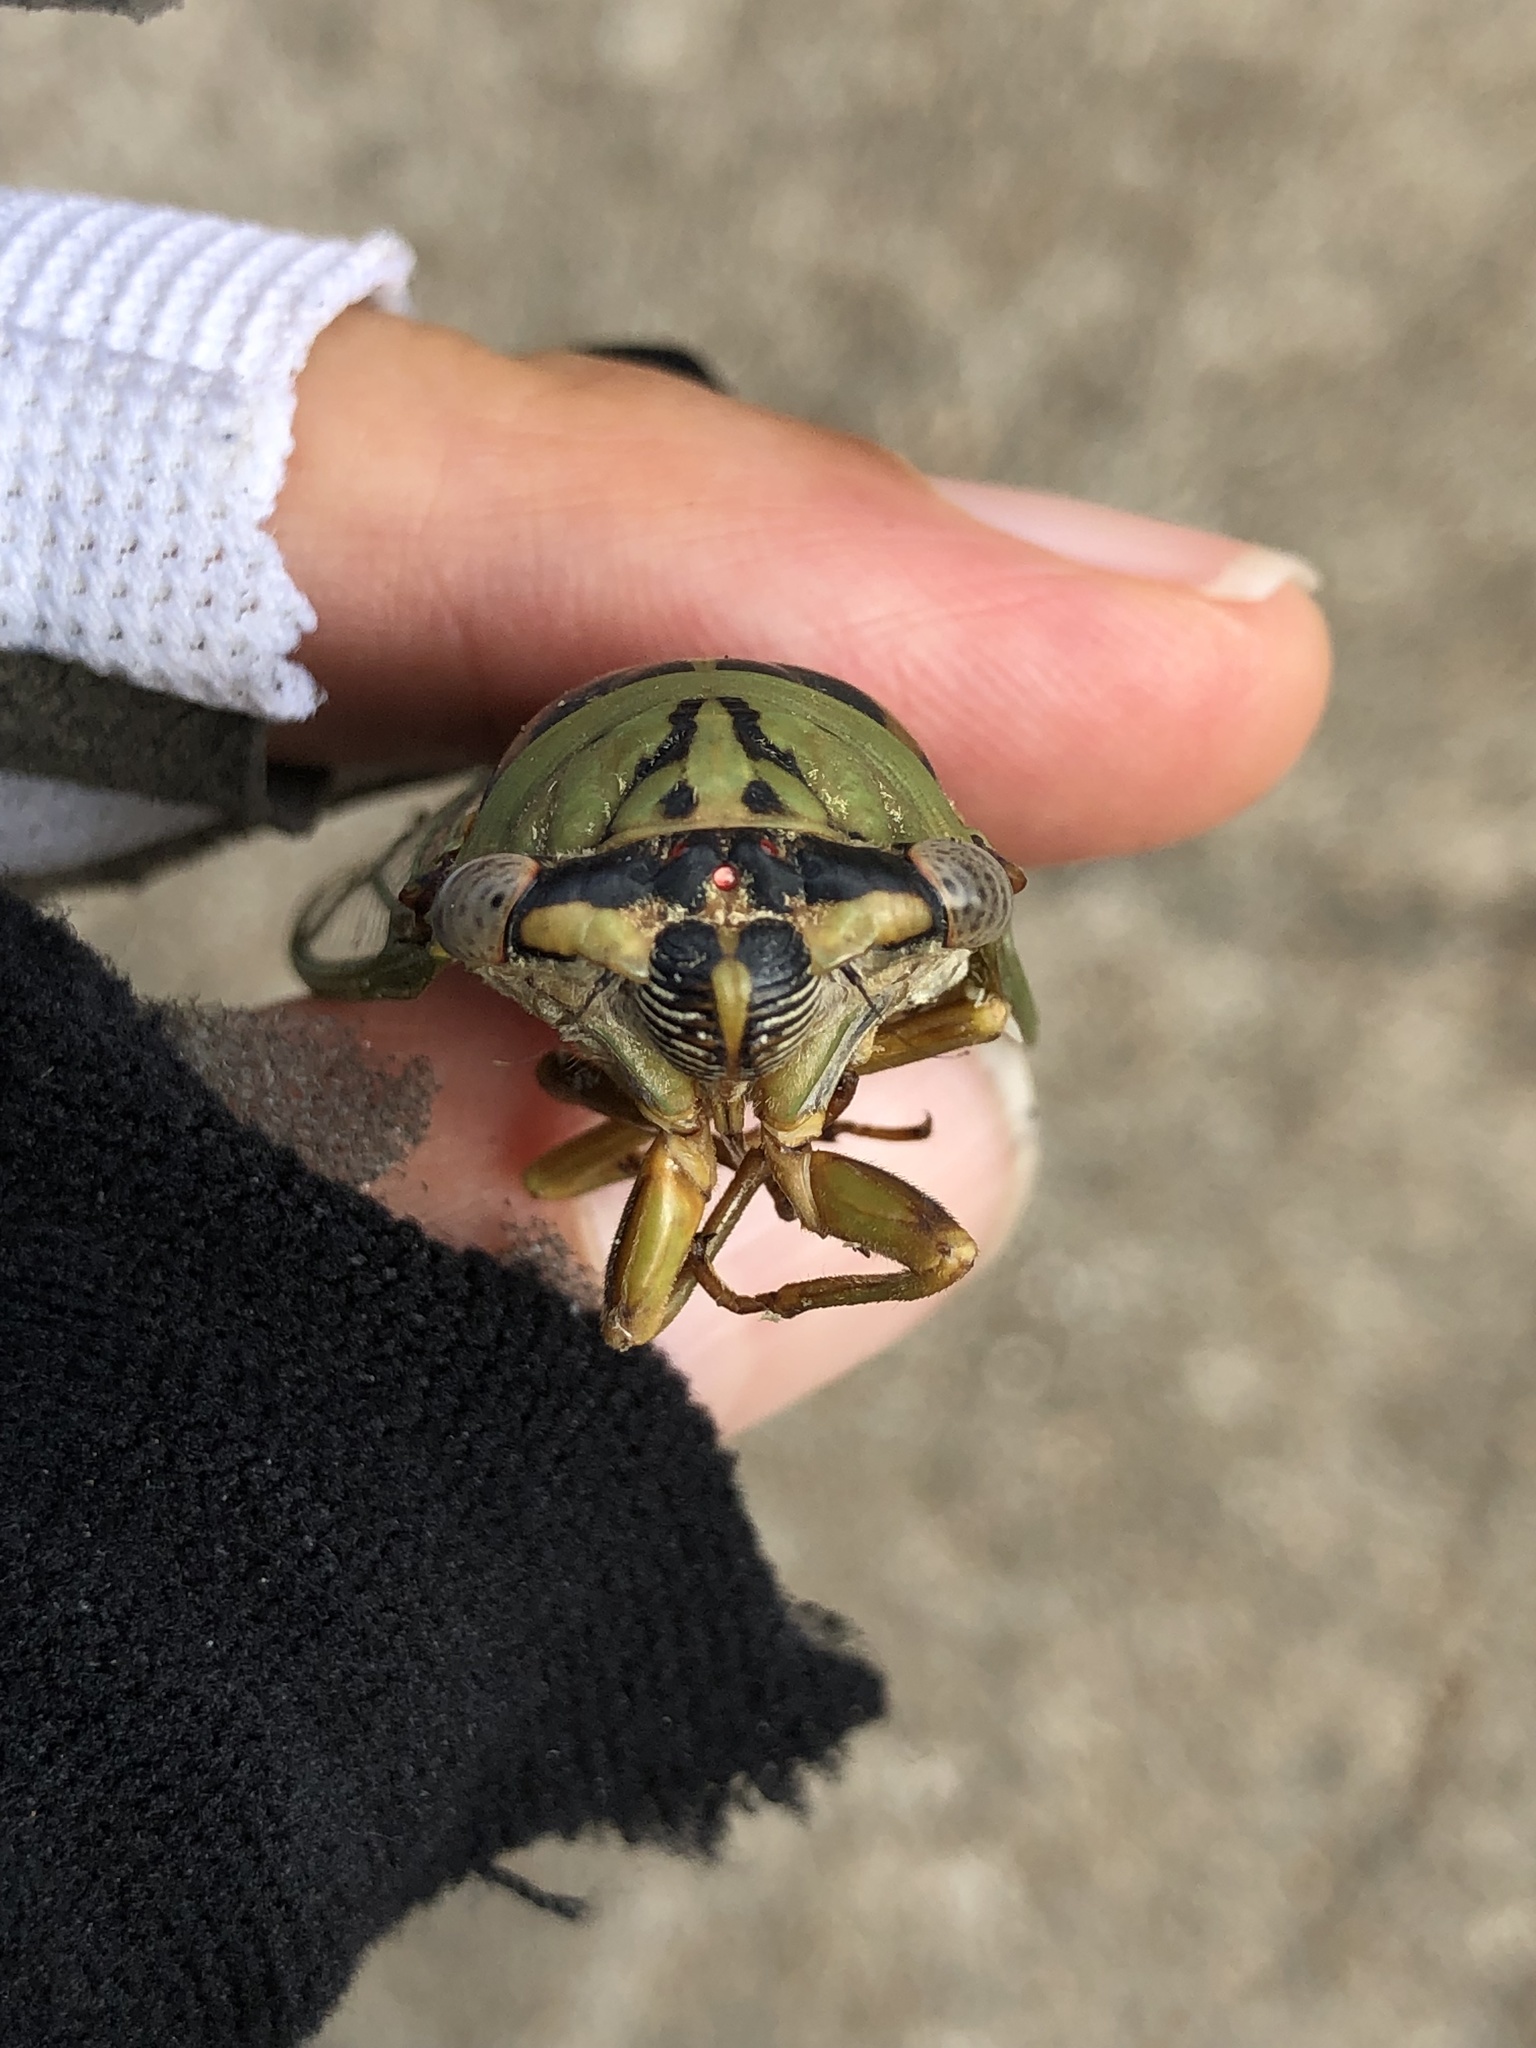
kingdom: Animalia
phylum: Arthropoda
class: Insecta
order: Hemiptera
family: Cicadidae
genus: Megatibicen
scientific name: Megatibicen resh
